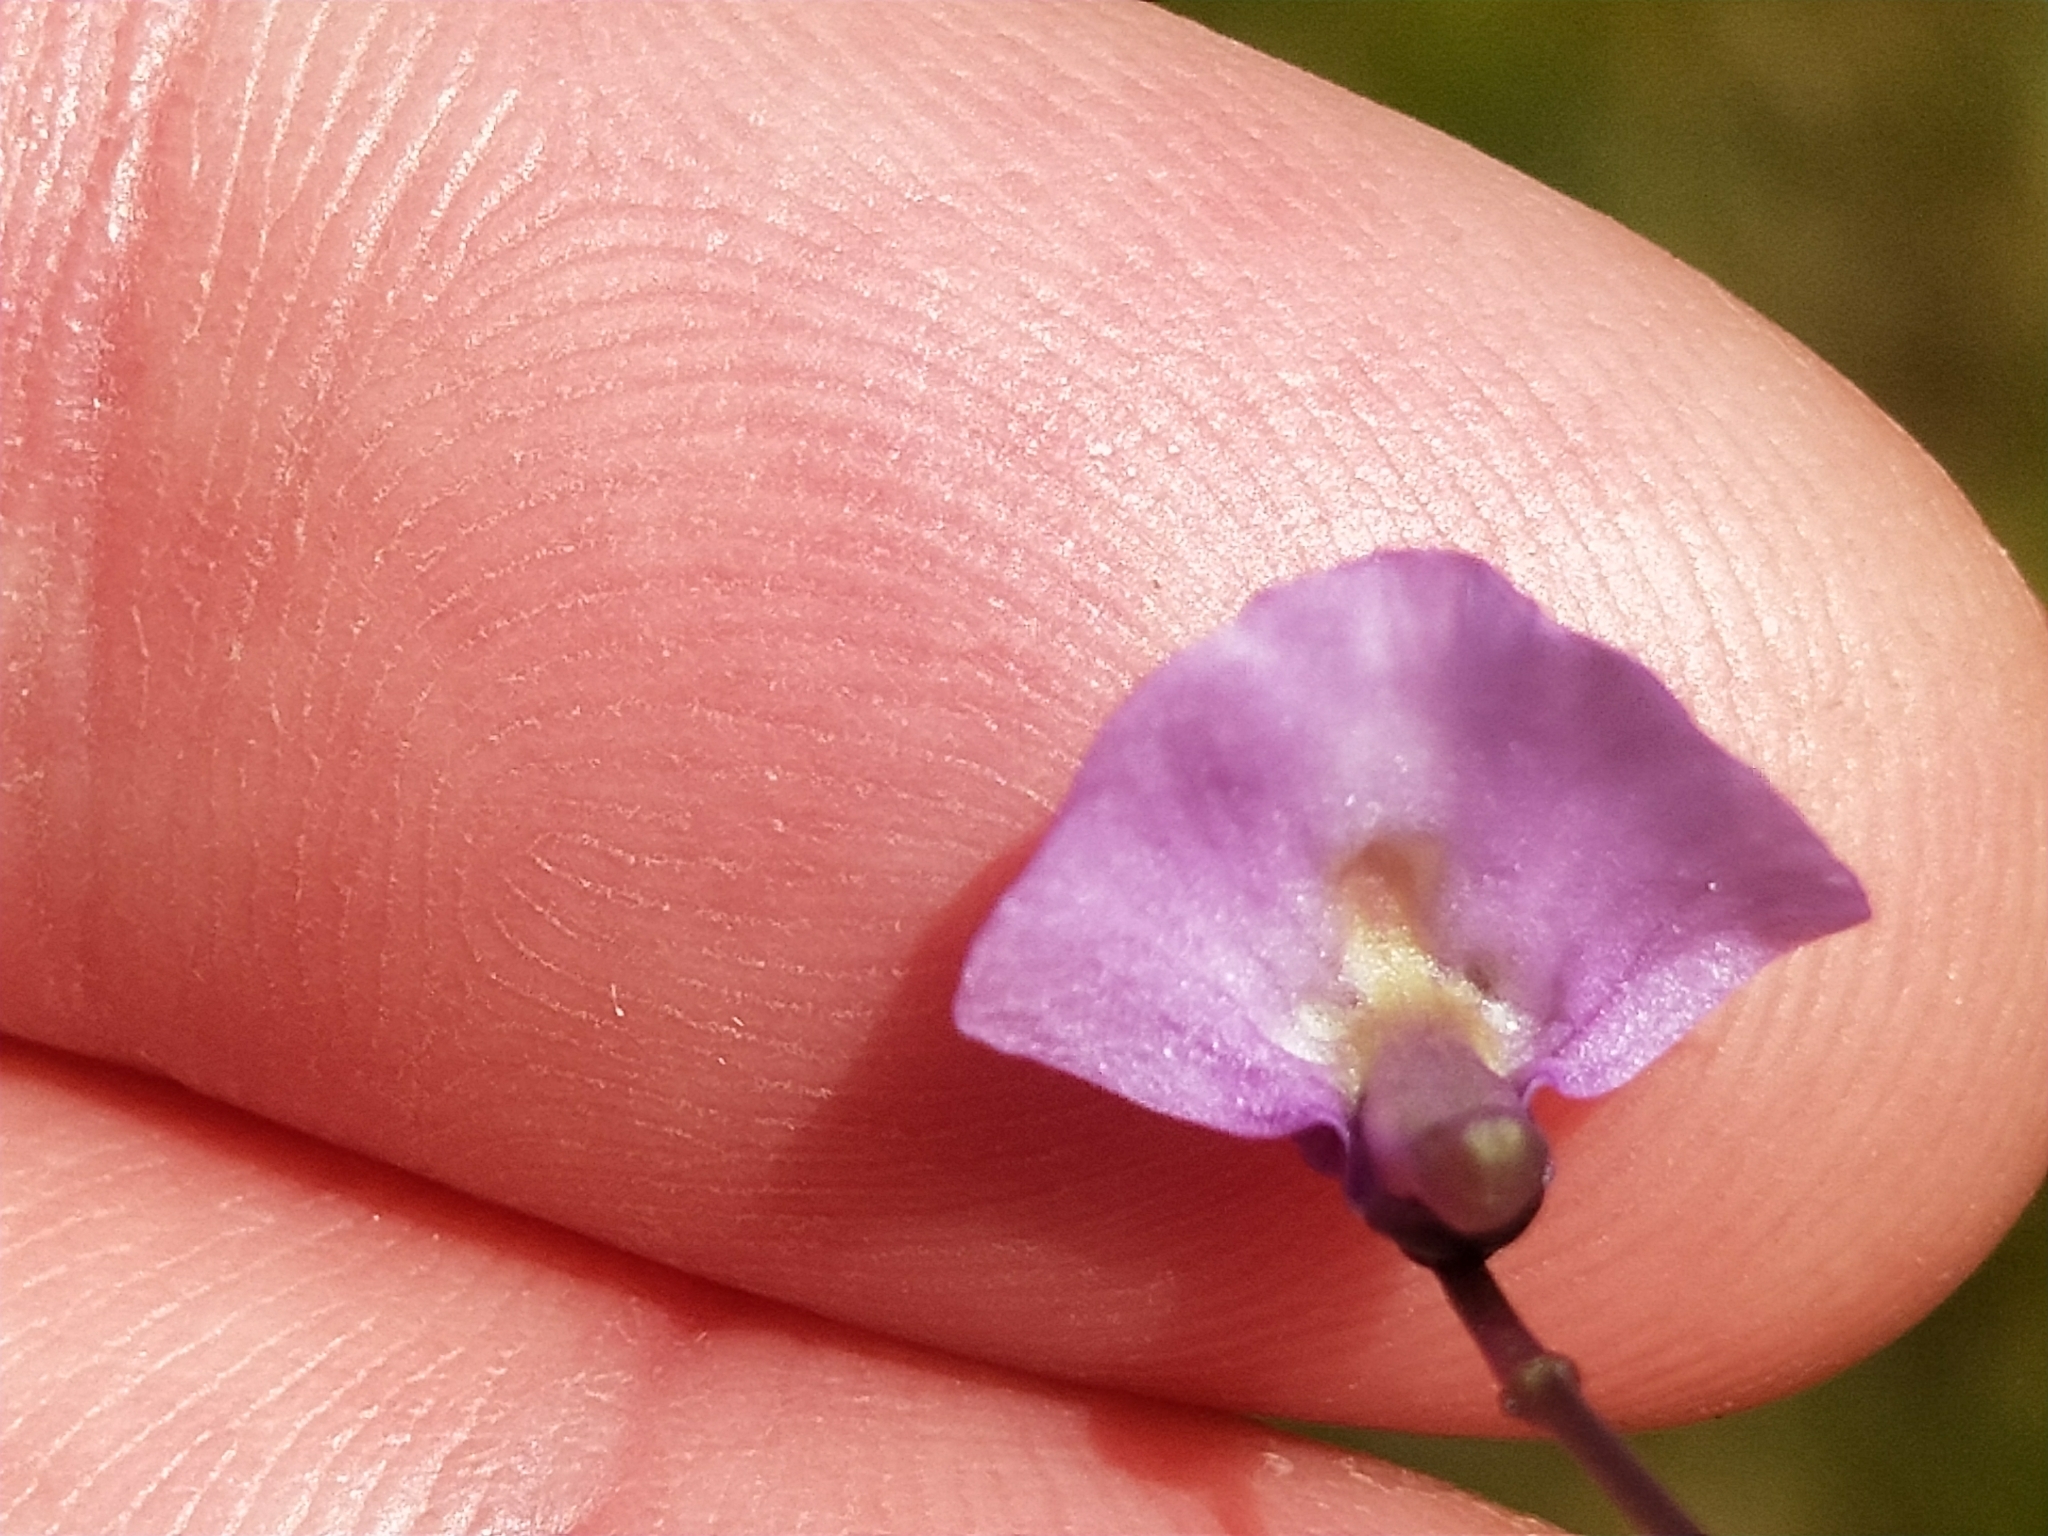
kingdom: Plantae
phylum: Tracheophyta
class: Magnoliopsida
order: Lamiales
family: Lentibulariaceae
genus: Utricularia
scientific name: Utricularia dichotoma
